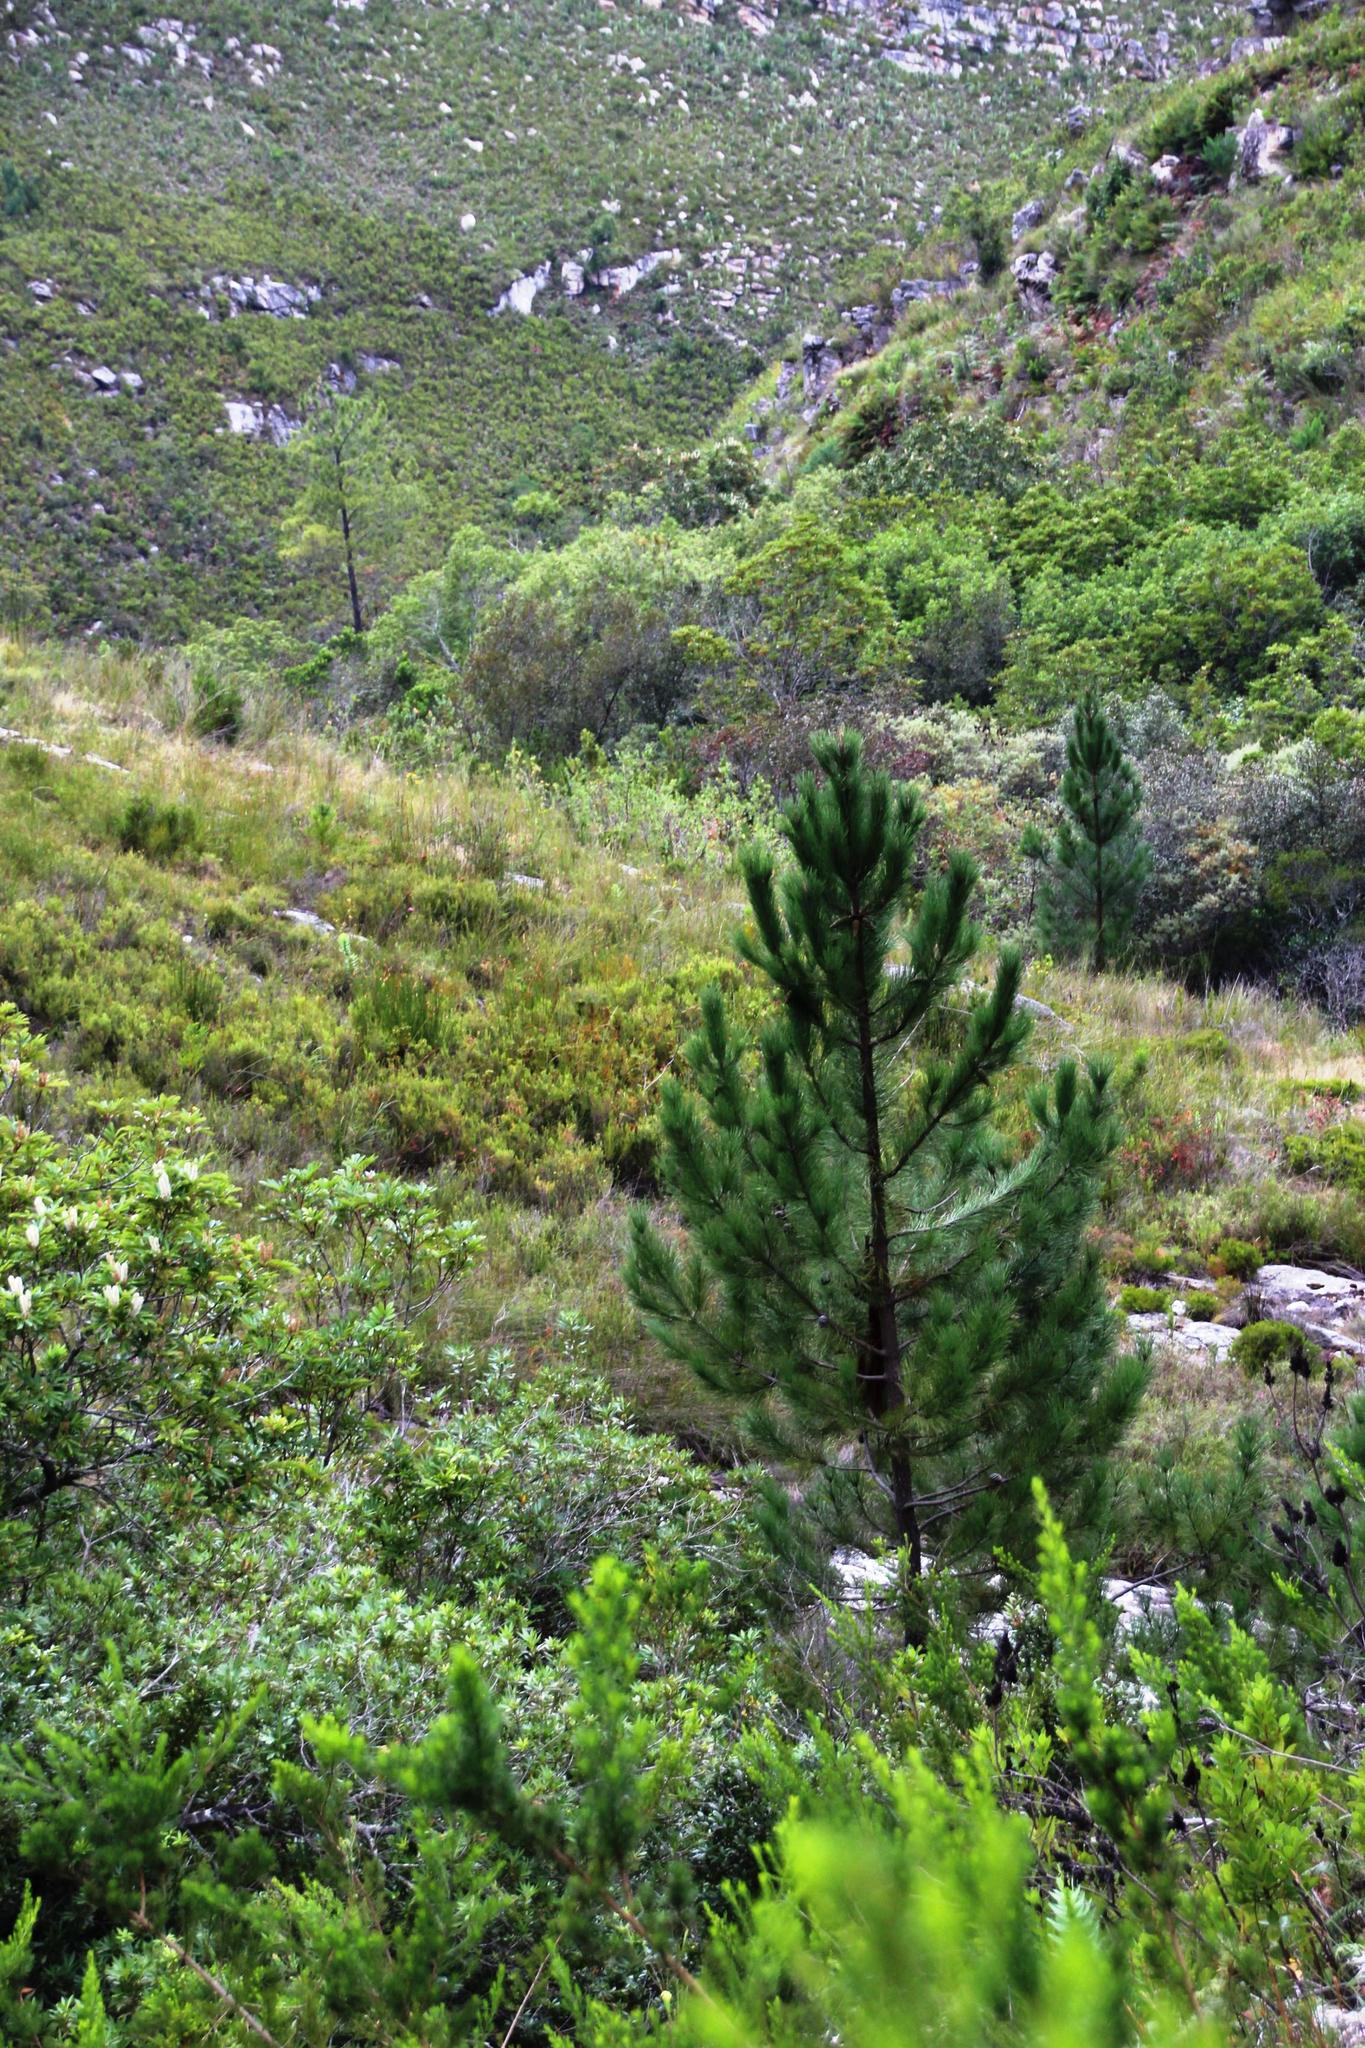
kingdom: Plantae
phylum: Tracheophyta
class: Pinopsida
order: Pinales
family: Pinaceae
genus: Pinus
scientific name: Pinus pinaster
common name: Maritime pine
